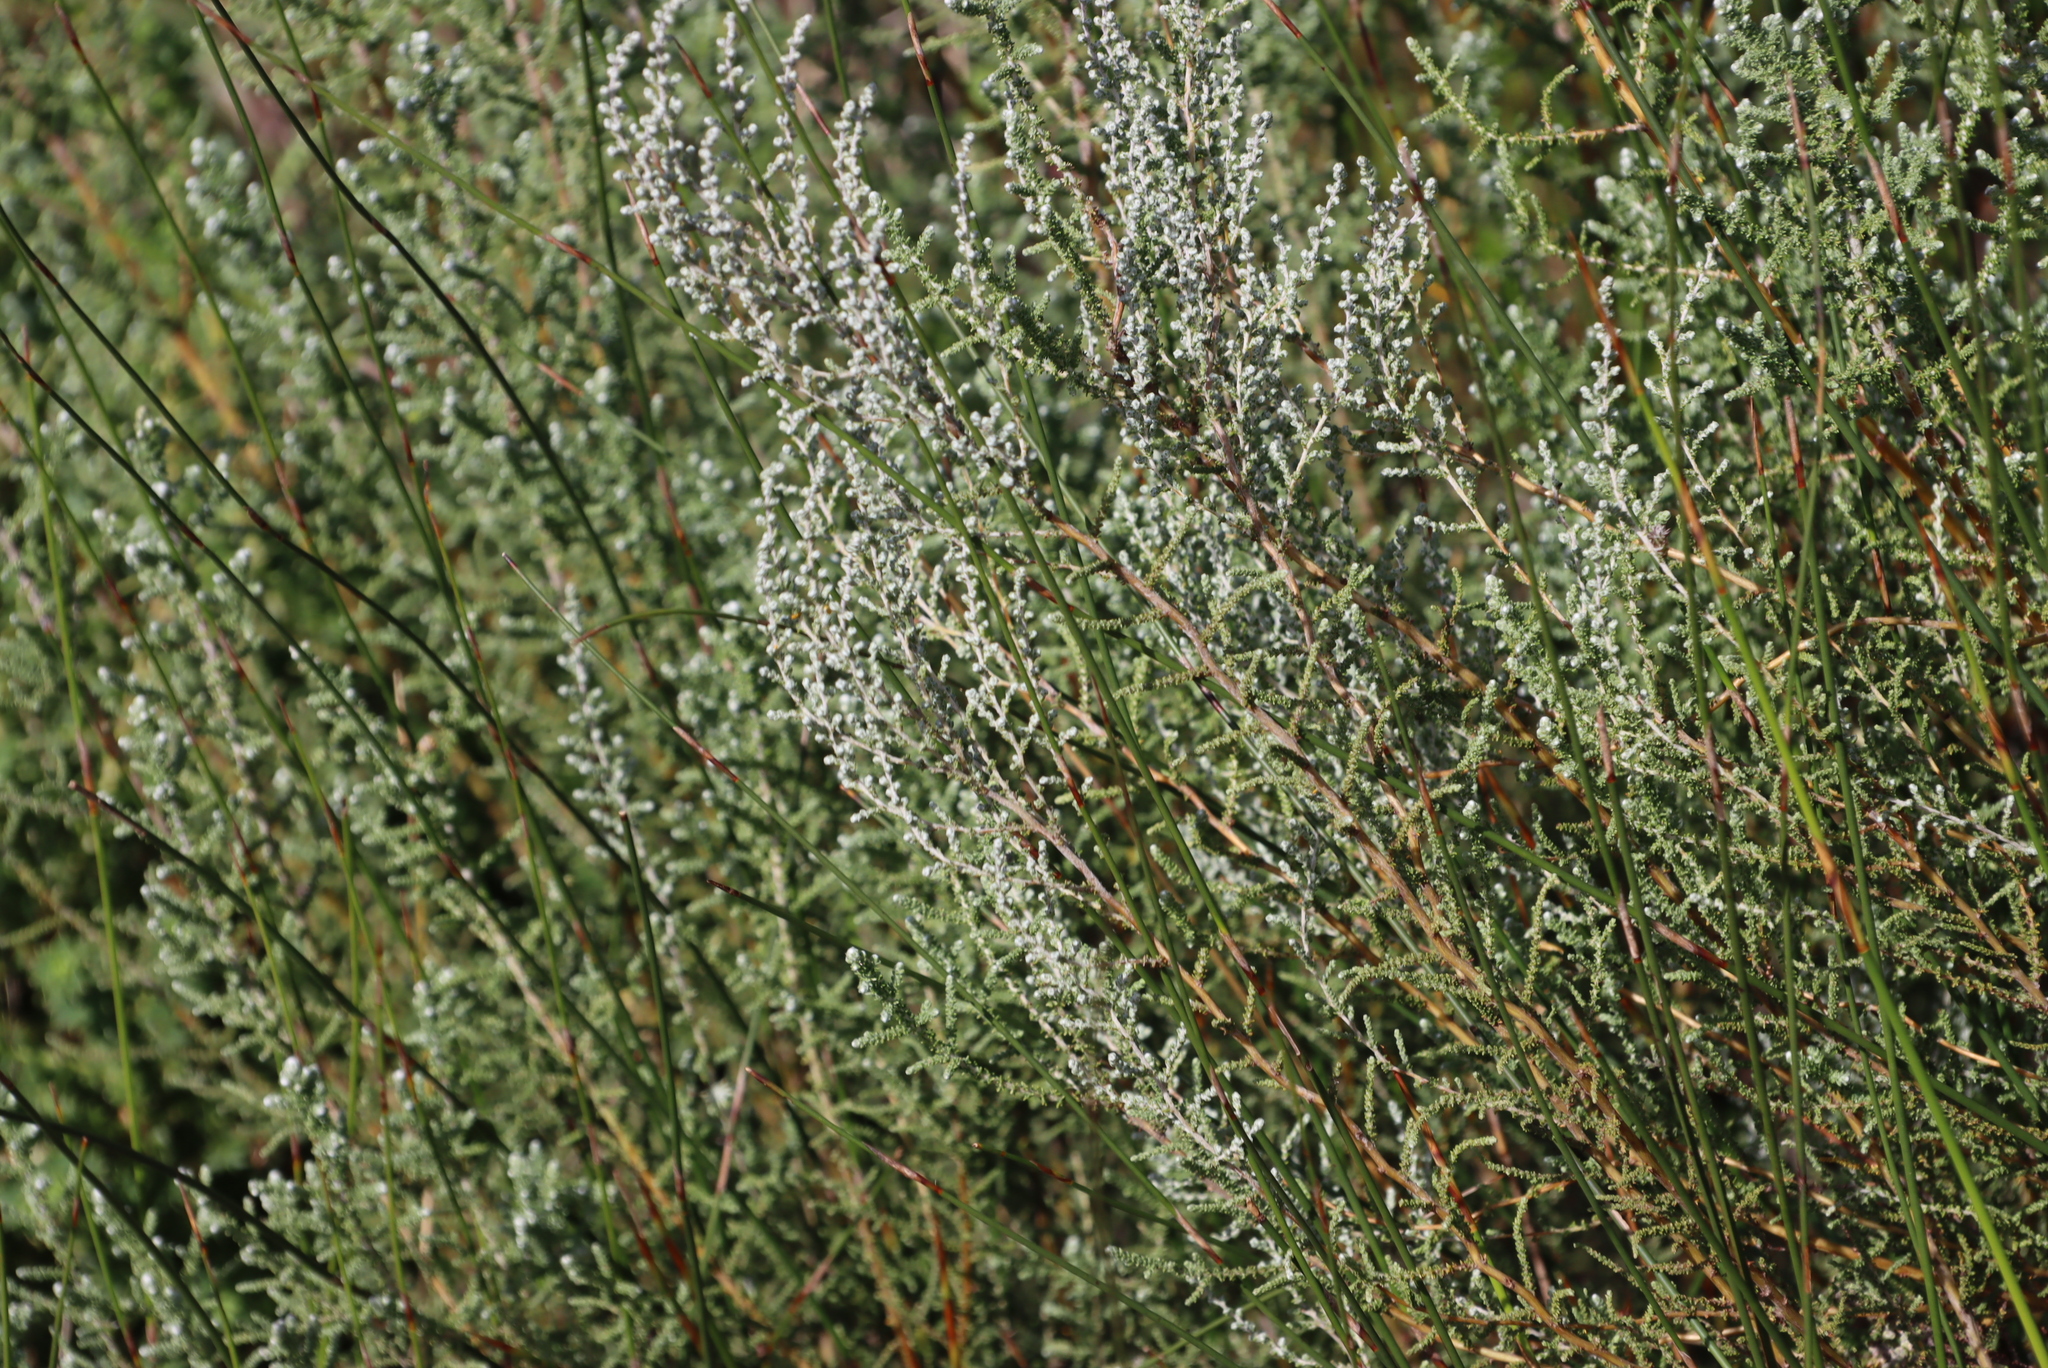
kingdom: Plantae
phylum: Tracheophyta
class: Magnoliopsida
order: Asterales
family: Asteraceae
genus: Seriphium
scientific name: Seriphium cinereum
